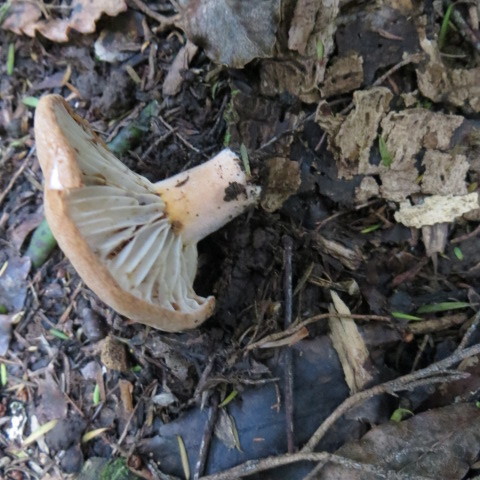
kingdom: Fungi
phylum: Basidiomycota
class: Agaricomycetes
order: Russulales
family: Russulaceae
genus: Lactifluus
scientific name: Lactifluus clarkeae
